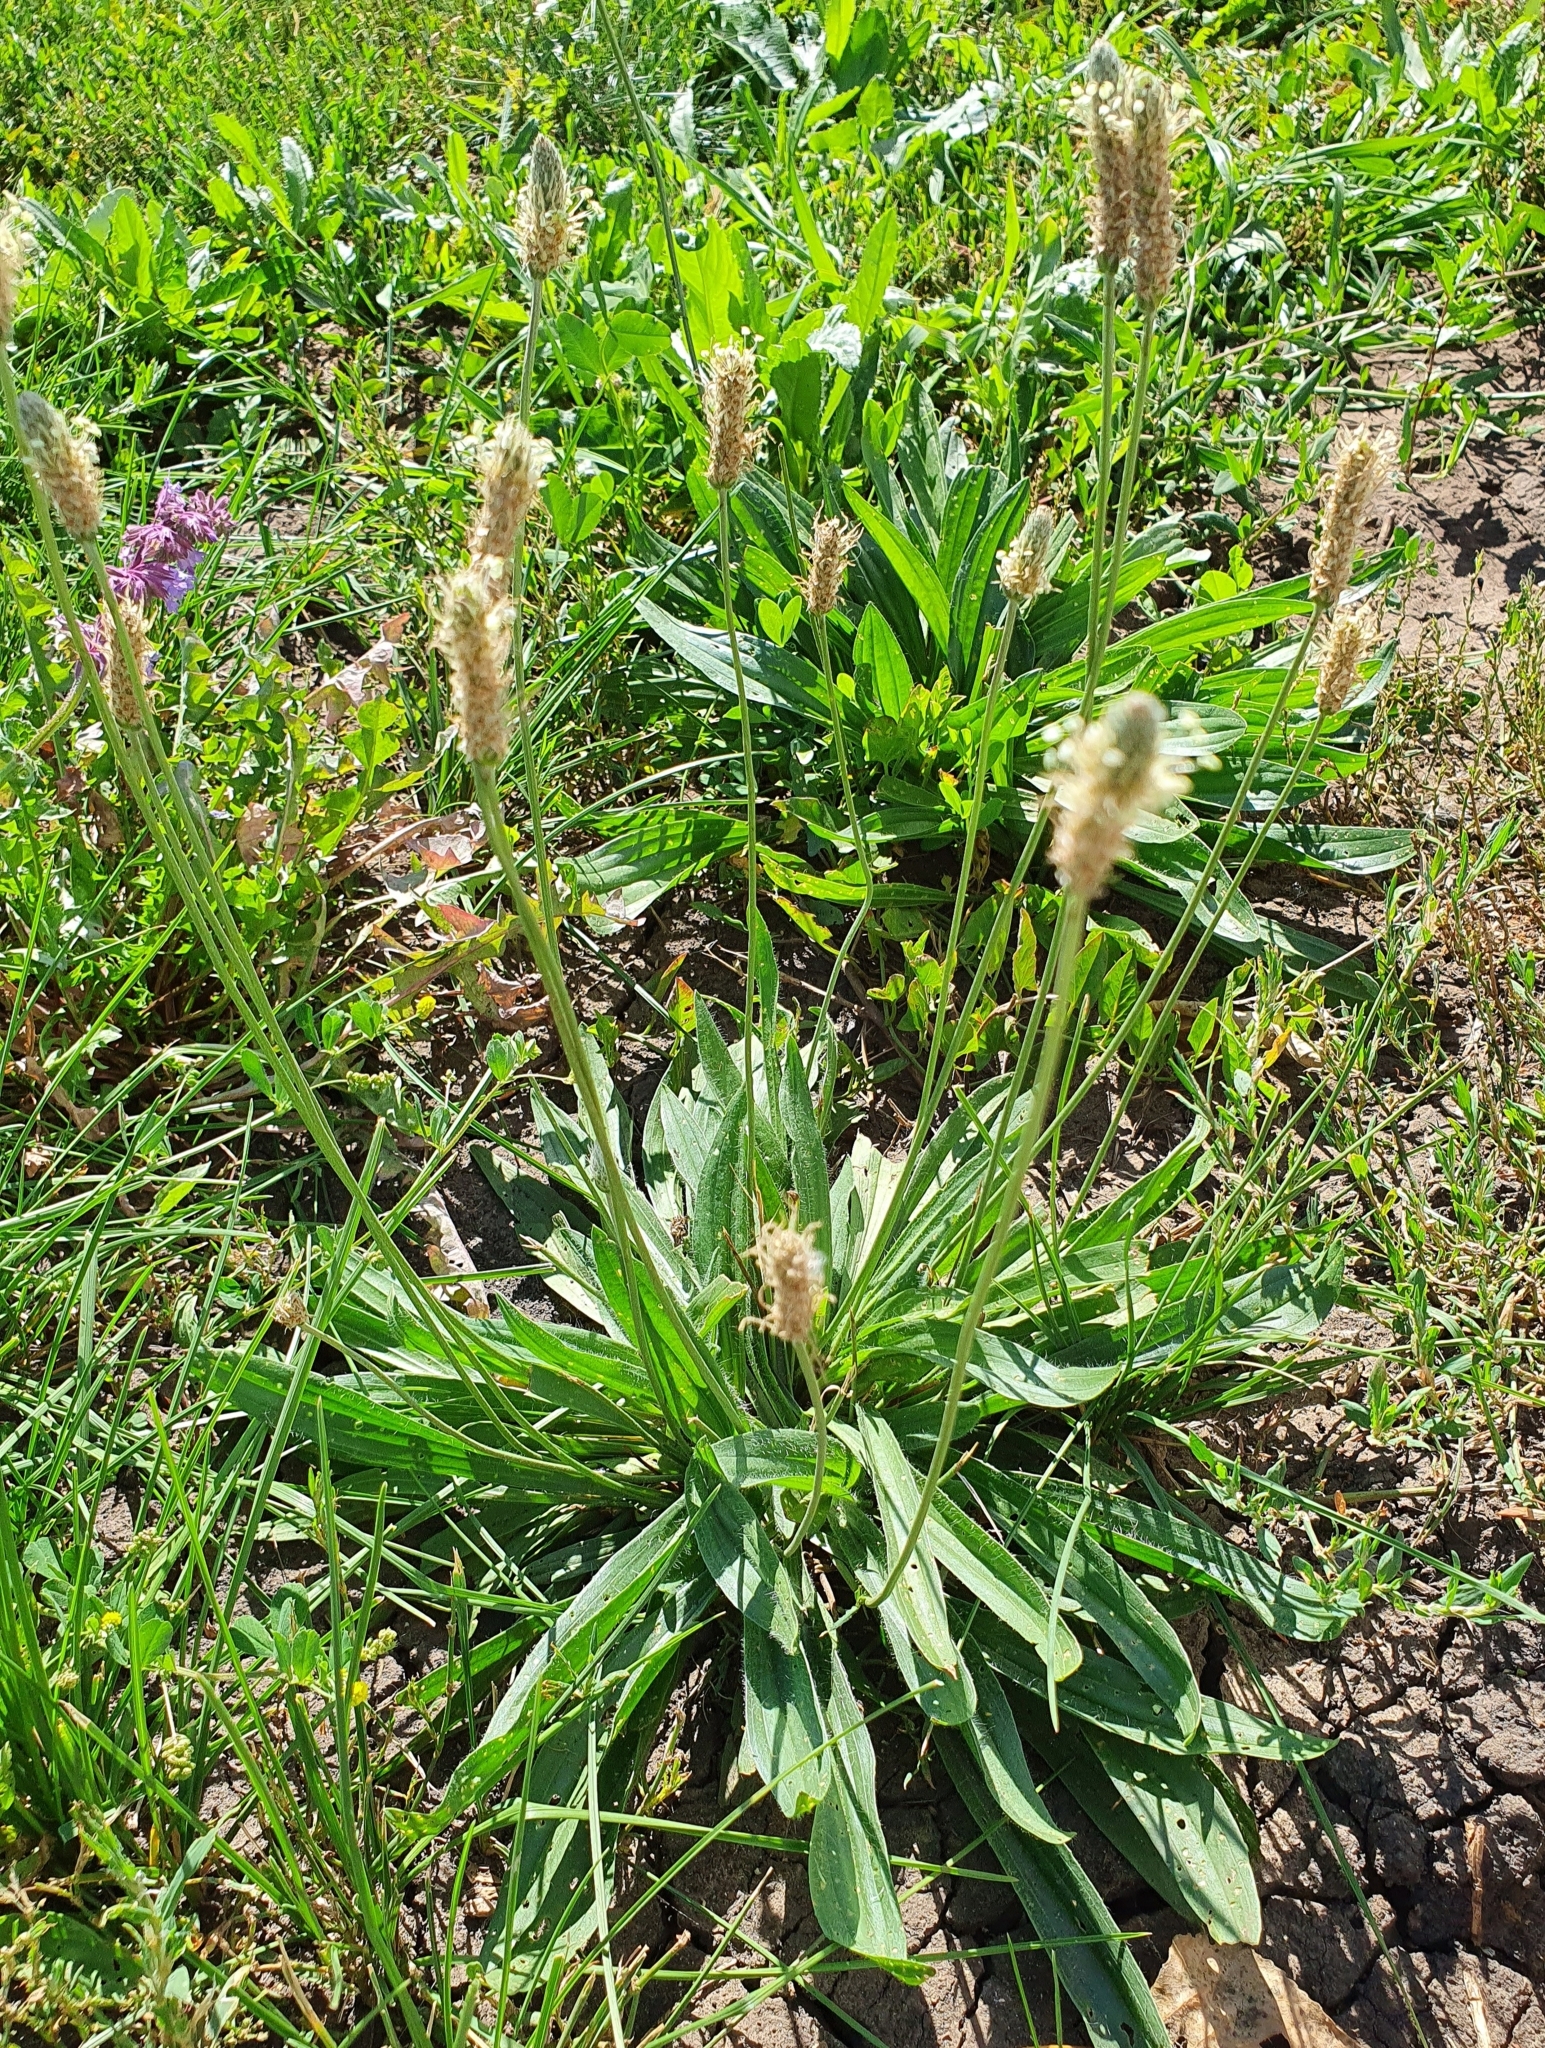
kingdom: Plantae
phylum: Tracheophyta
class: Magnoliopsida
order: Lamiales
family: Plantaginaceae
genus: Plantago
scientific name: Plantago lanceolata
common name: Ribwort plantain
